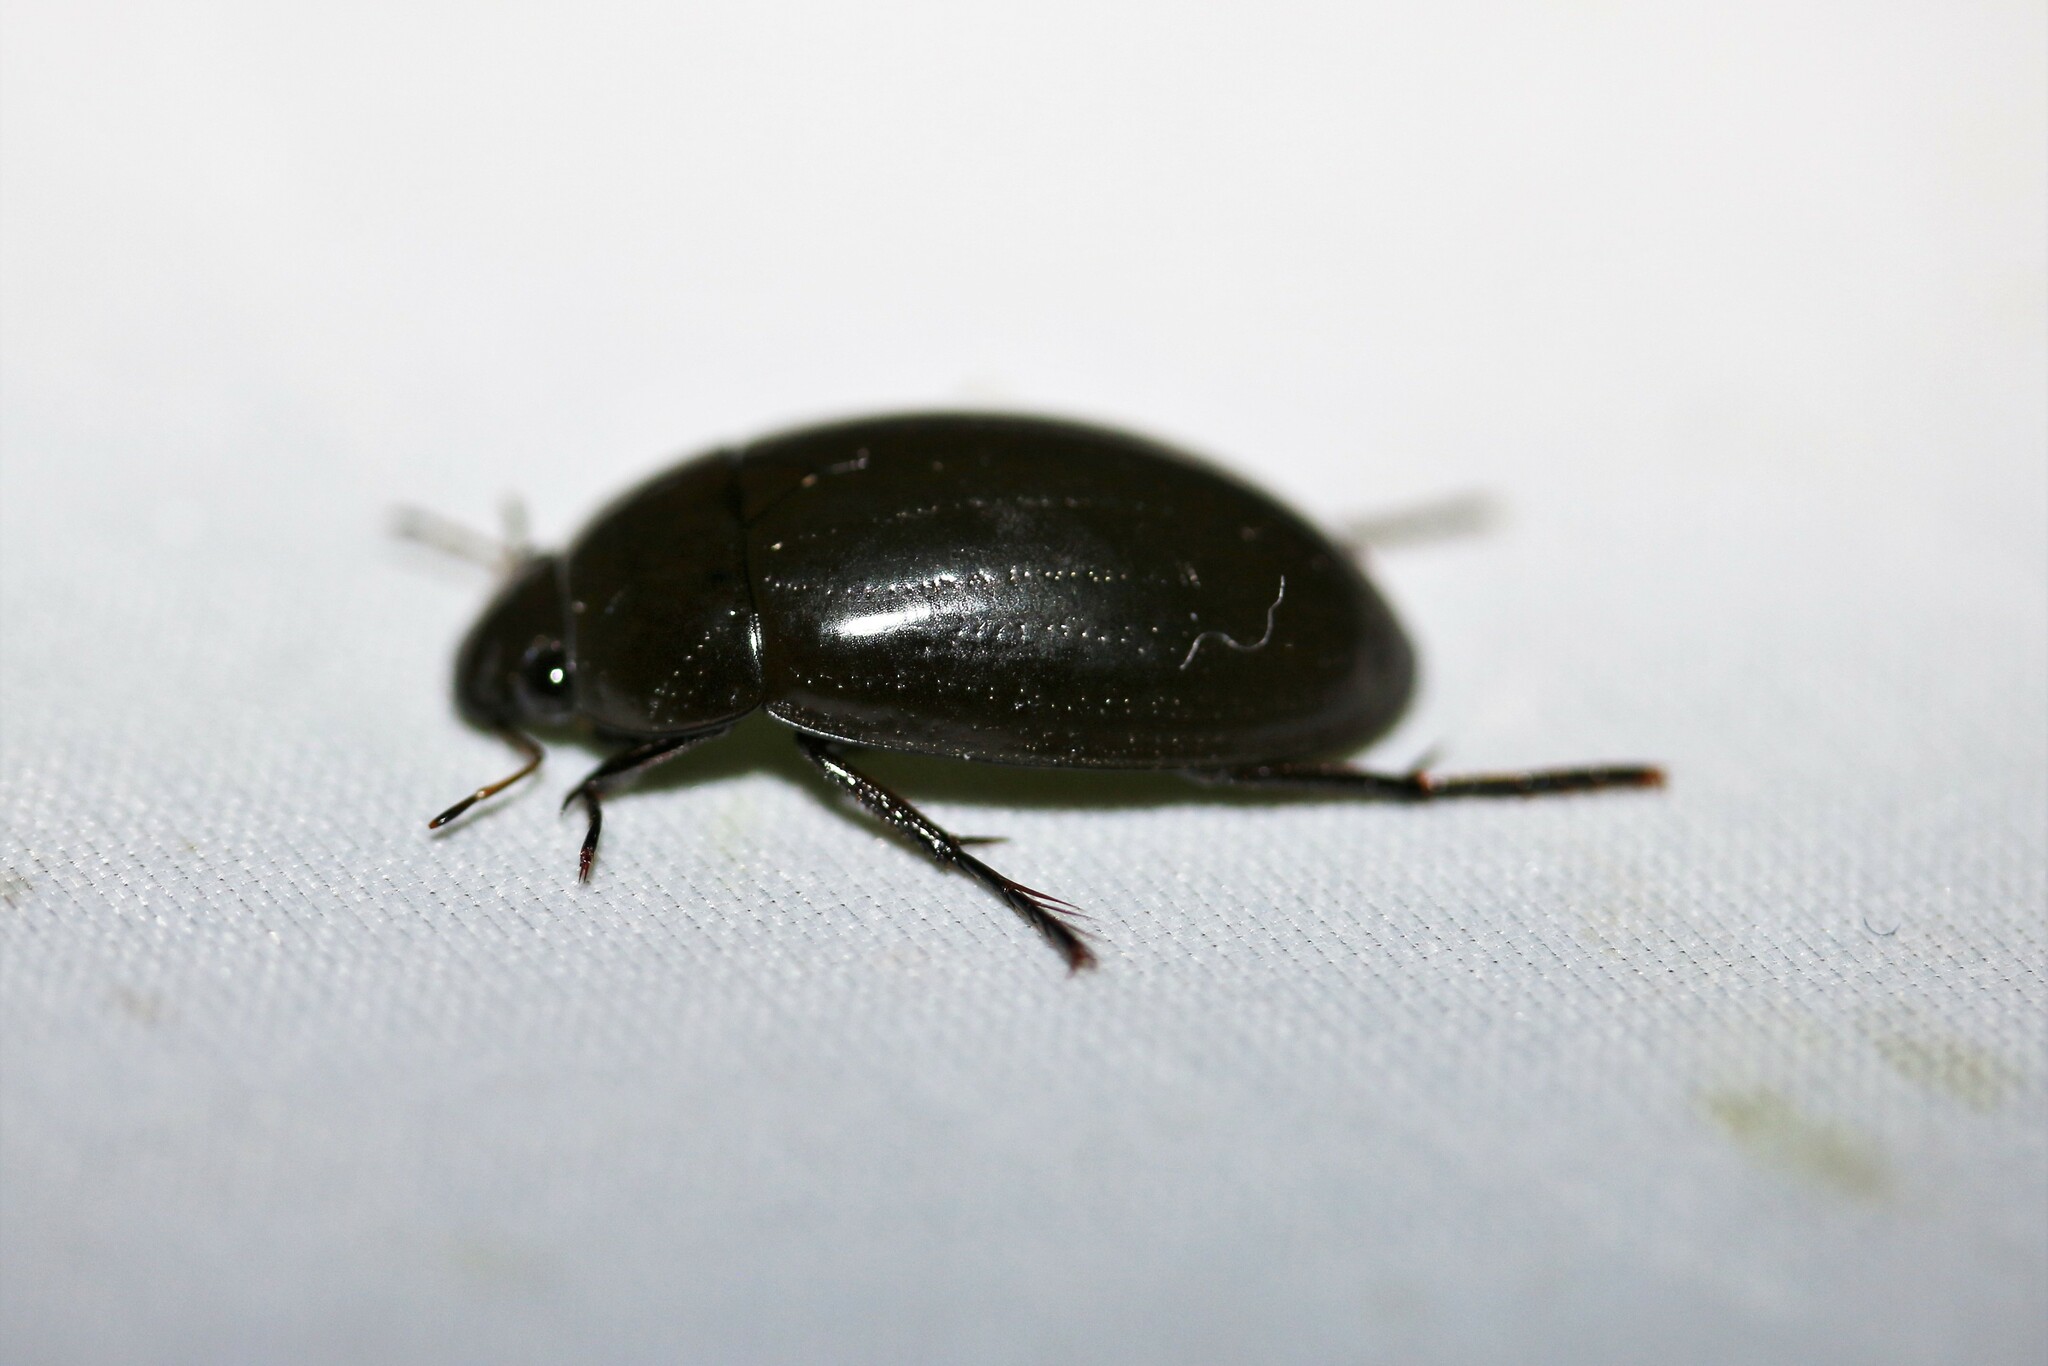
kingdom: Animalia
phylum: Arthropoda
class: Insecta
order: Coleoptera
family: Hydrophilidae
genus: Hydrochara
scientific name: Hydrochara caraboides
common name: Lesser silver water beetle
